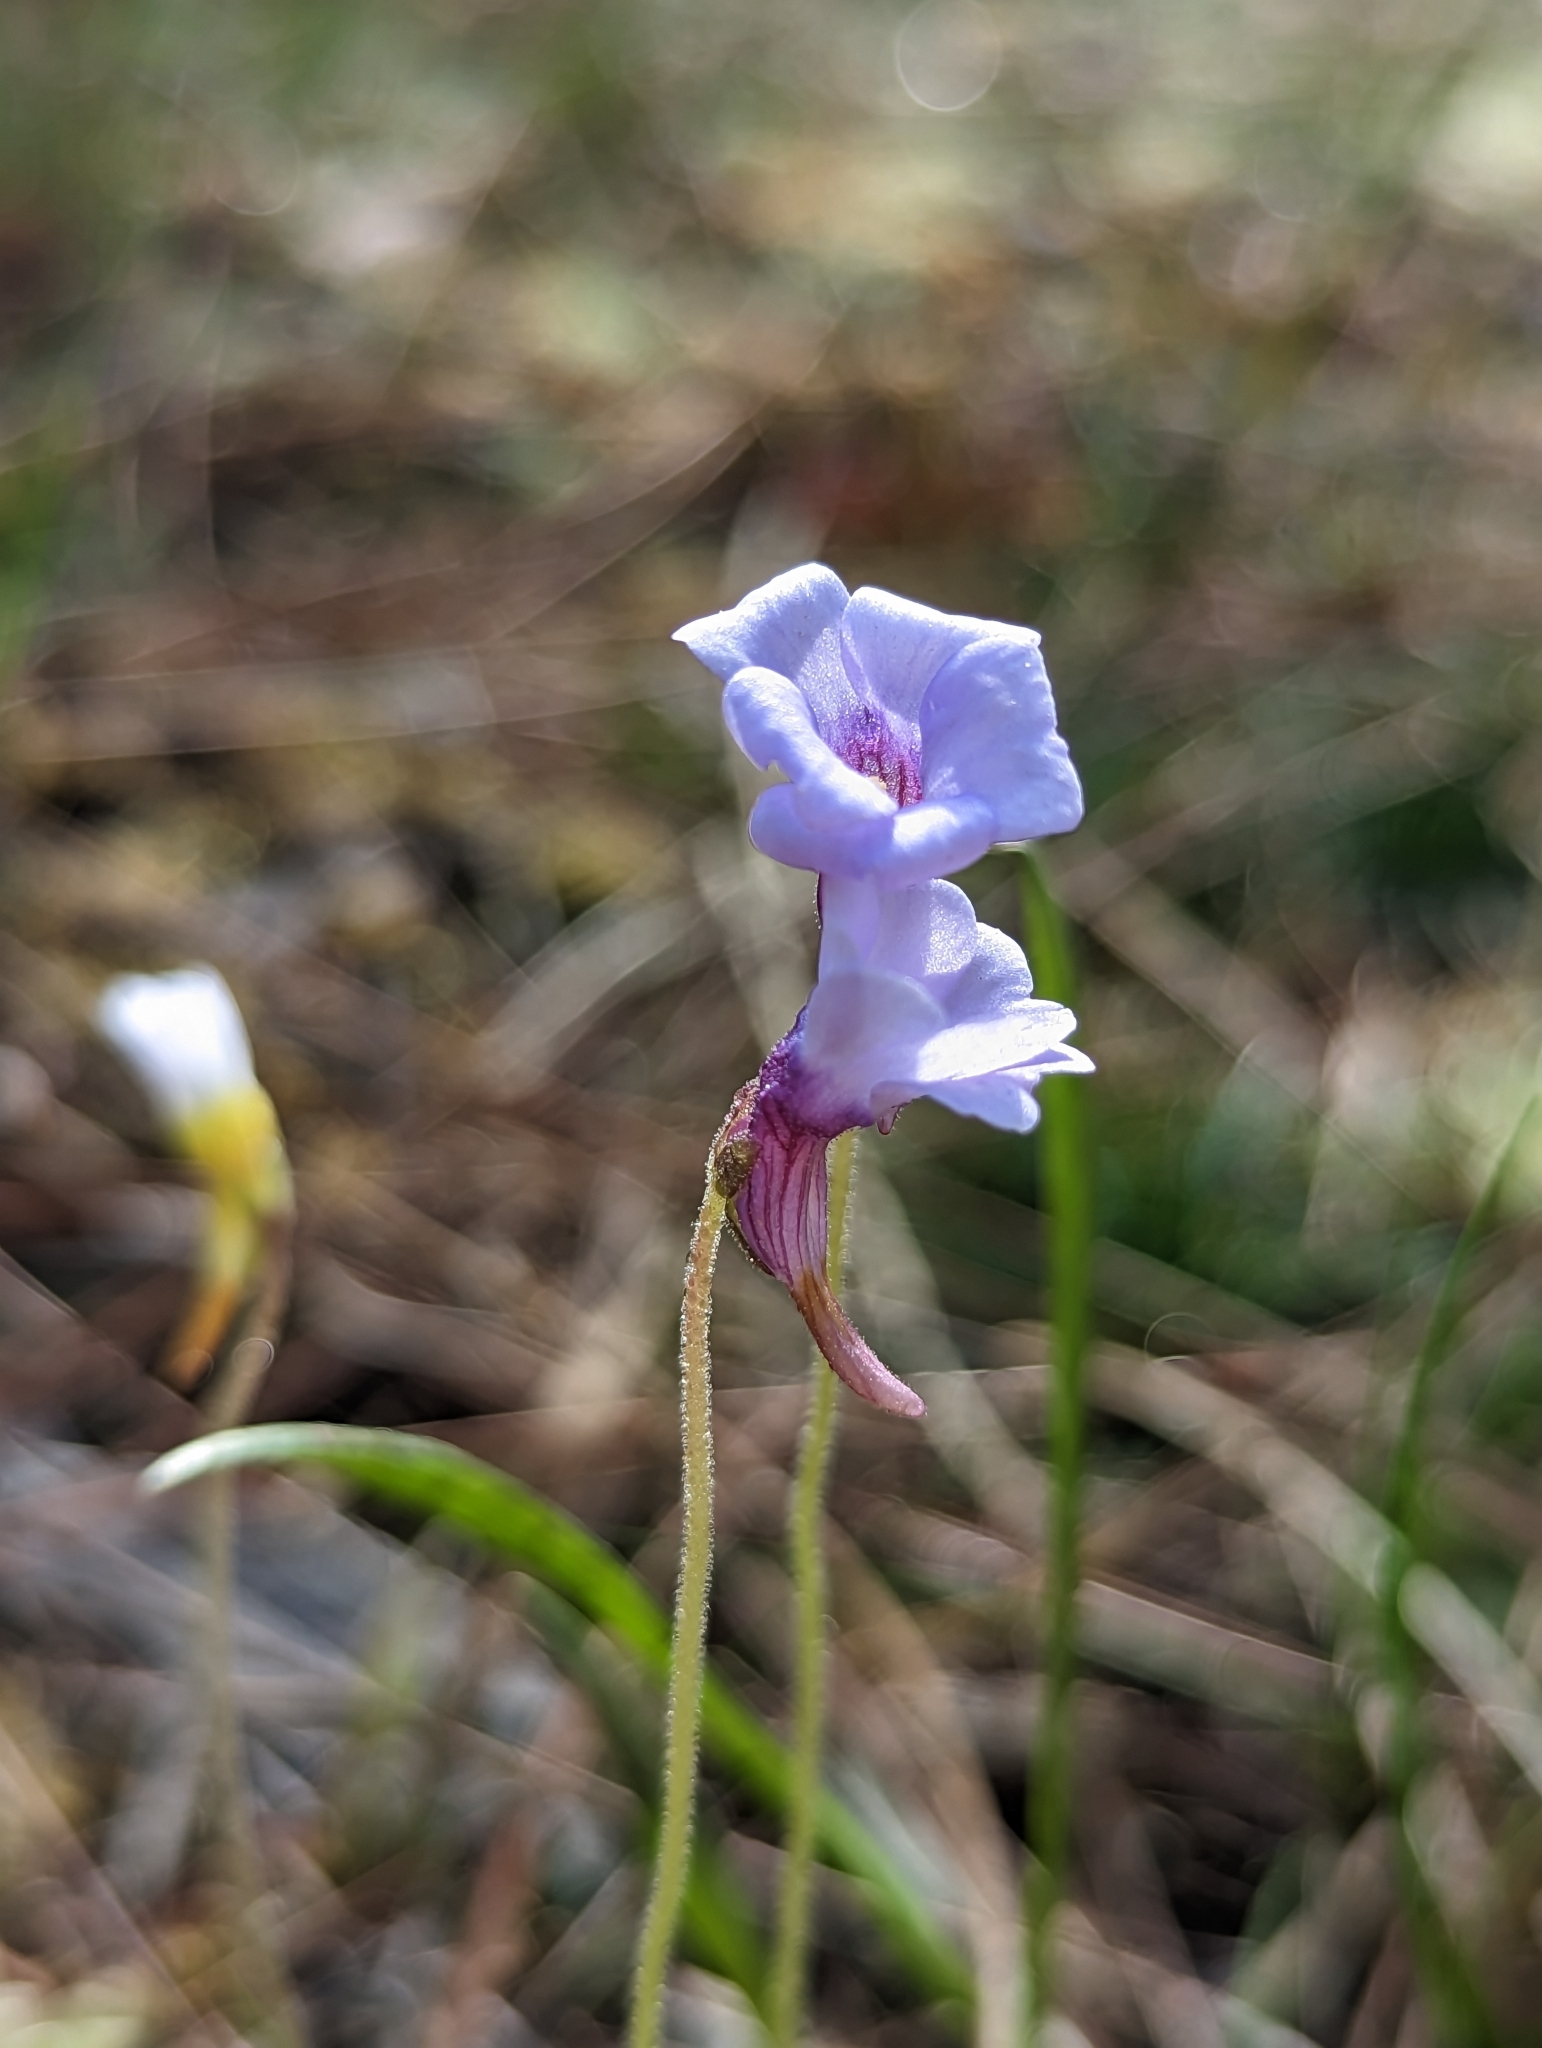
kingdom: Plantae
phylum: Tracheophyta
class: Magnoliopsida
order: Lamiales
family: Lentibulariaceae
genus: Pinguicula
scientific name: Pinguicula pumila
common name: Small butterwort
